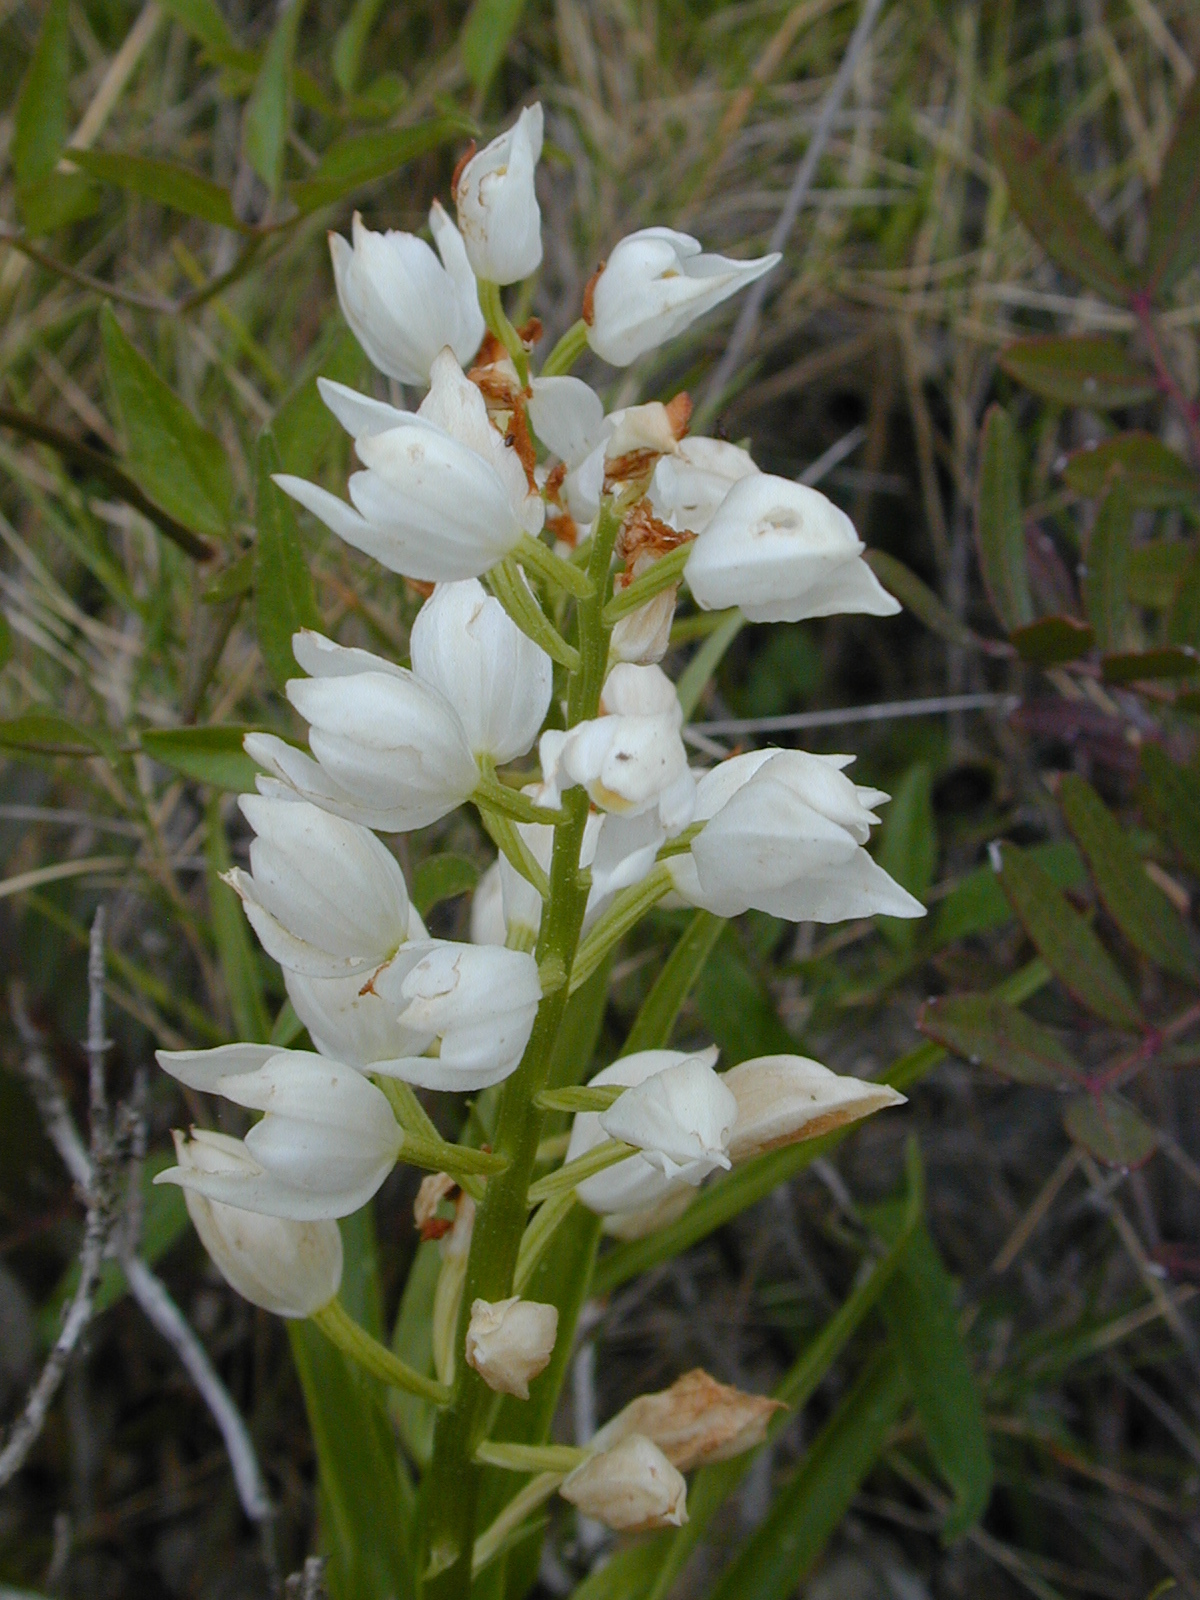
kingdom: Plantae
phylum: Tracheophyta
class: Liliopsida
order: Asparagales
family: Orchidaceae
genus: Cephalanthera
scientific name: Cephalanthera longifolia
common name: Narrow-leaved helleborine
